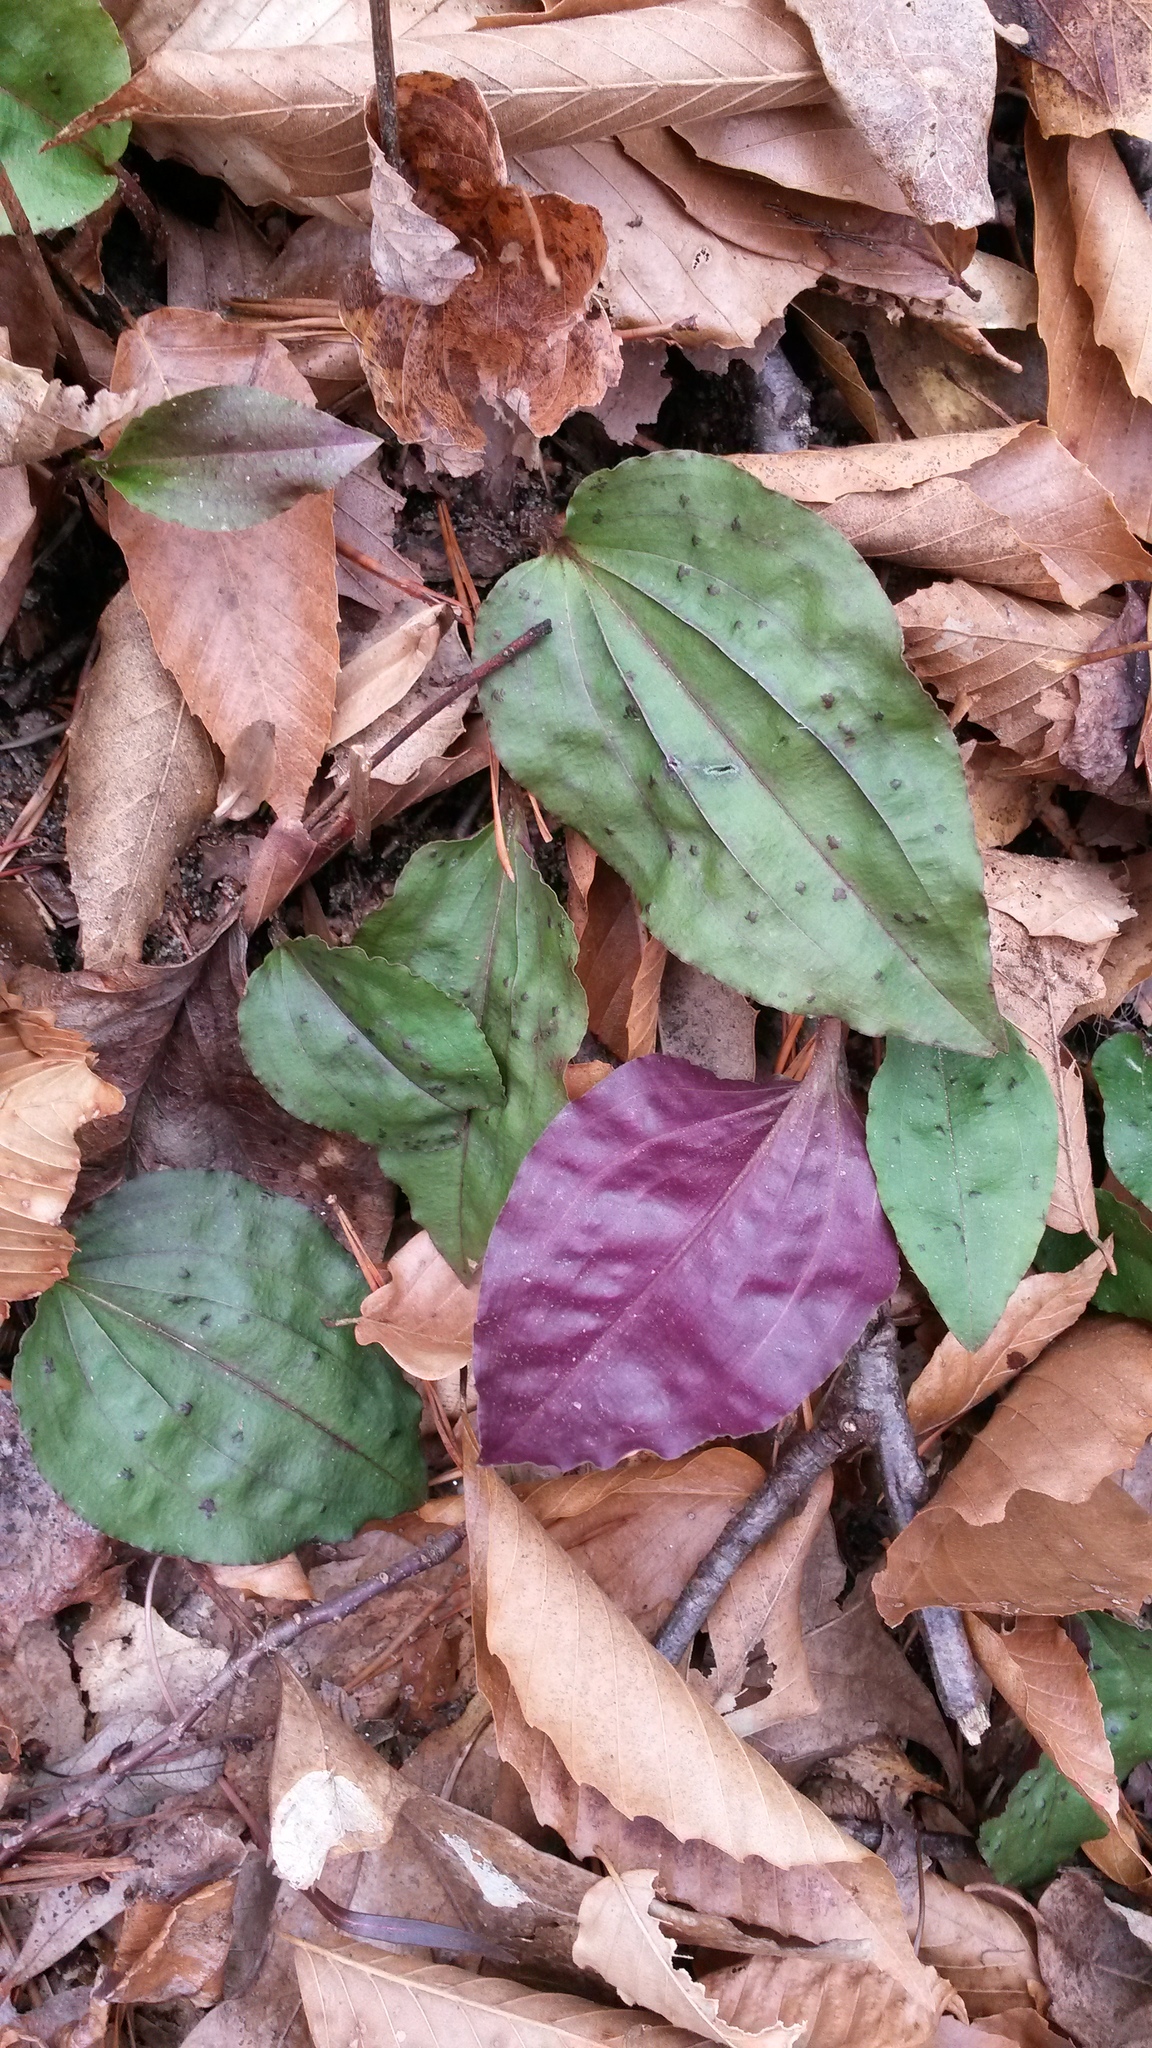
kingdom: Plantae
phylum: Tracheophyta
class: Liliopsida
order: Asparagales
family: Orchidaceae
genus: Tipularia
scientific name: Tipularia discolor
